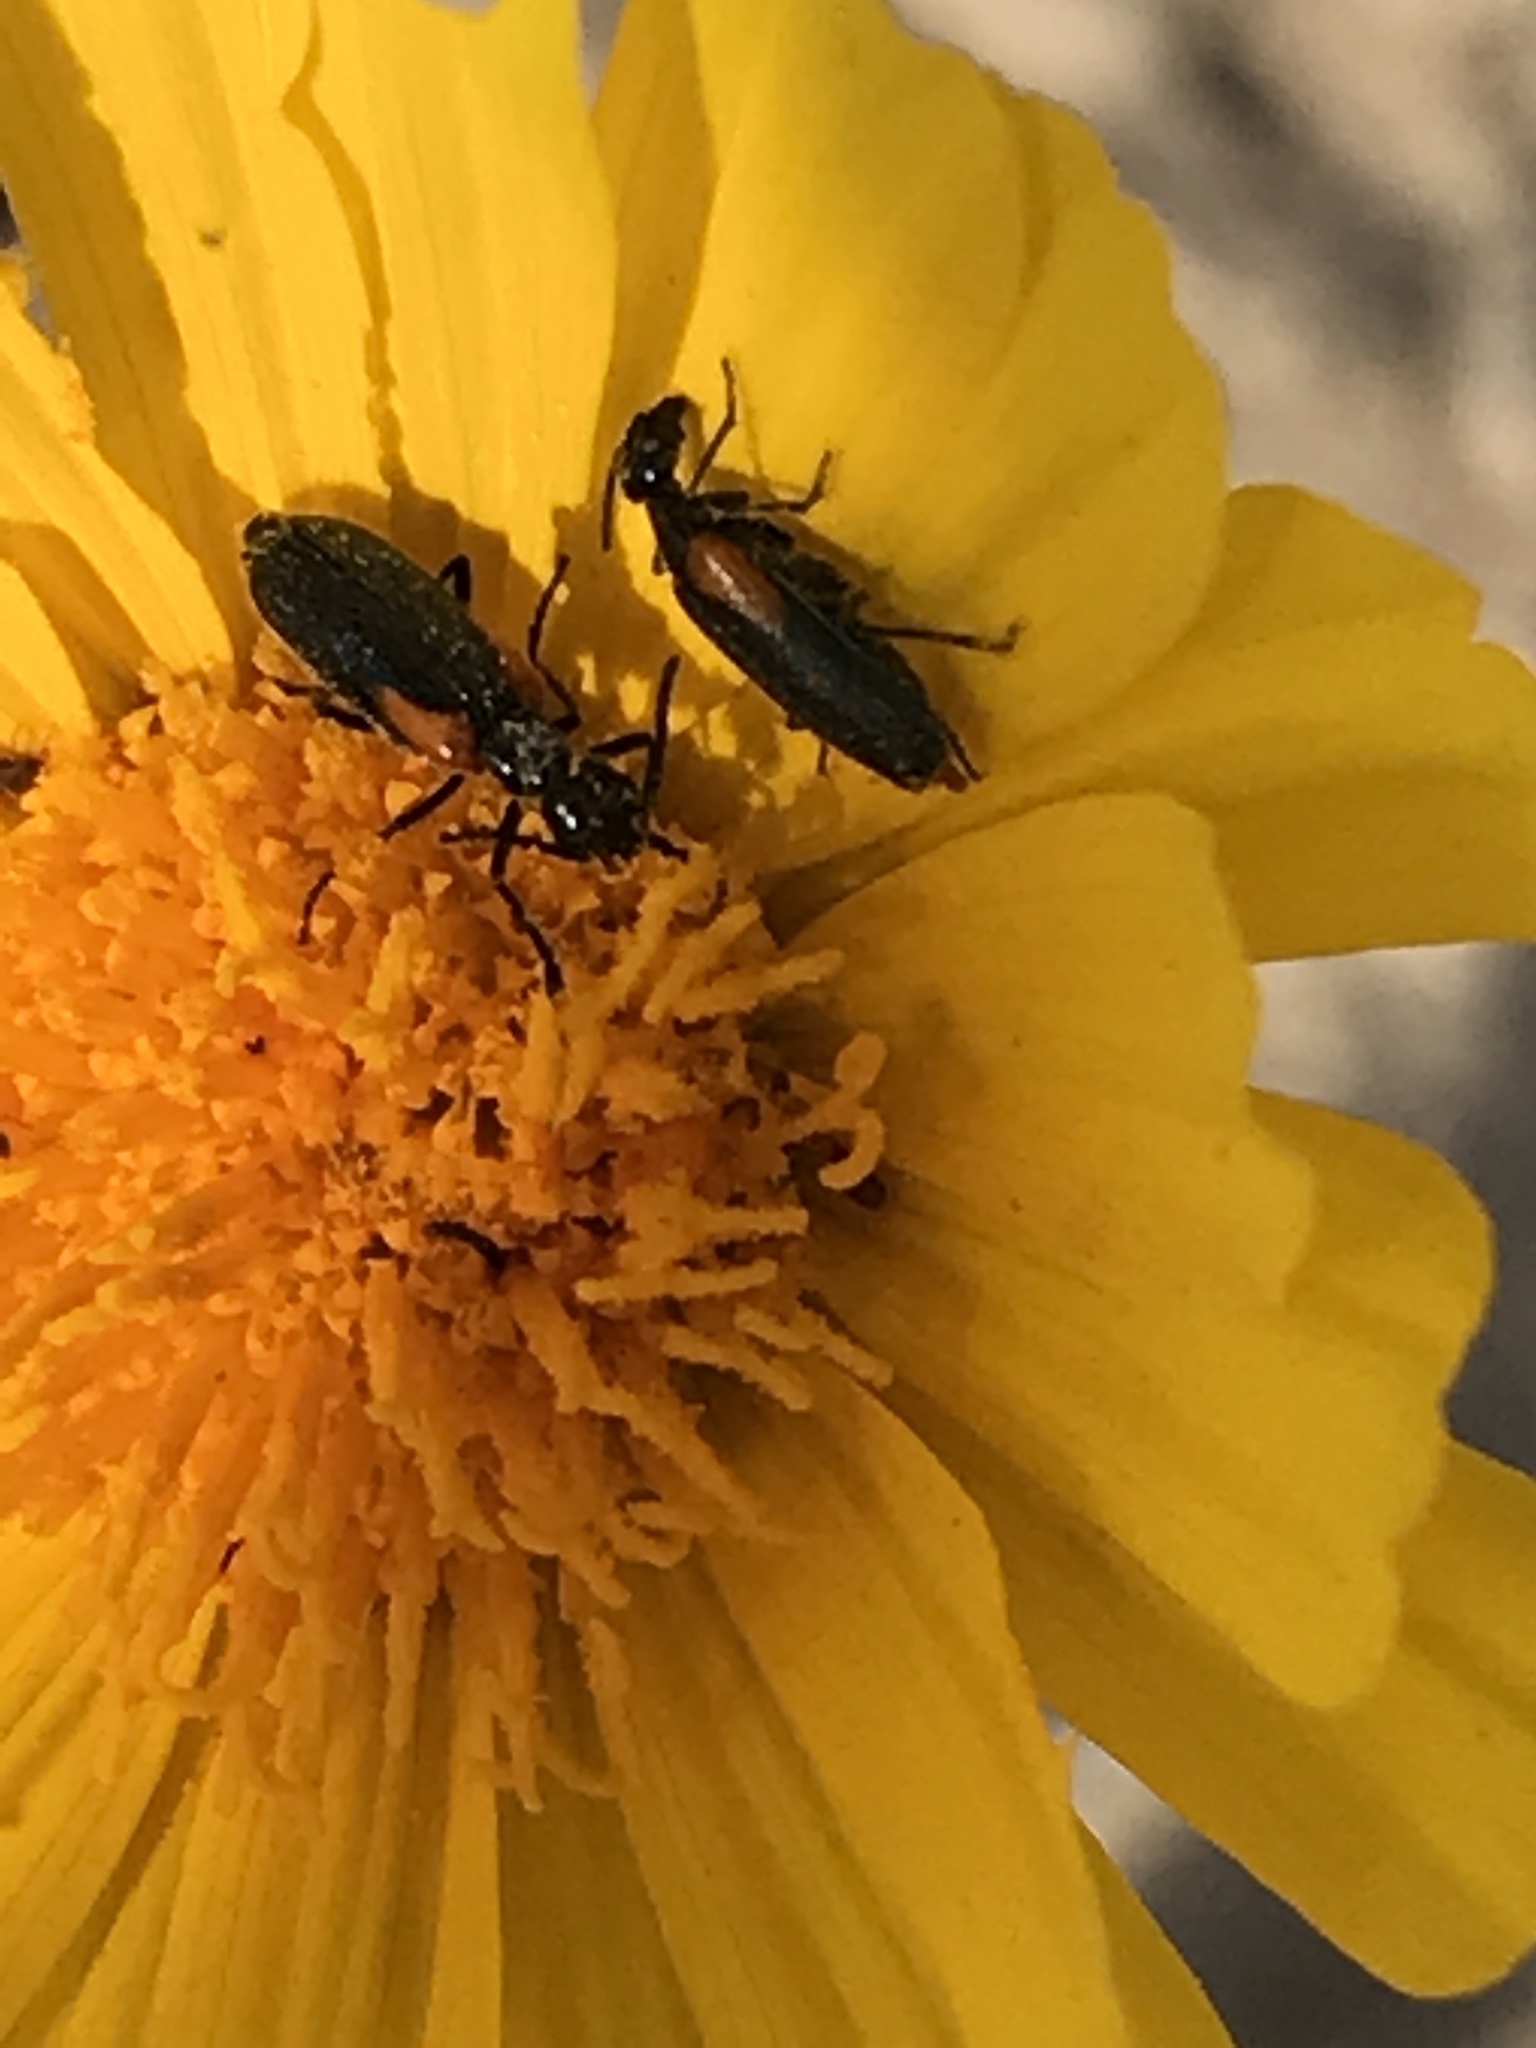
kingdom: Animalia
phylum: Arthropoda
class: Insecta
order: Coleoptera
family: Meloidae
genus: Eupompha
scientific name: Eupompha elegans
